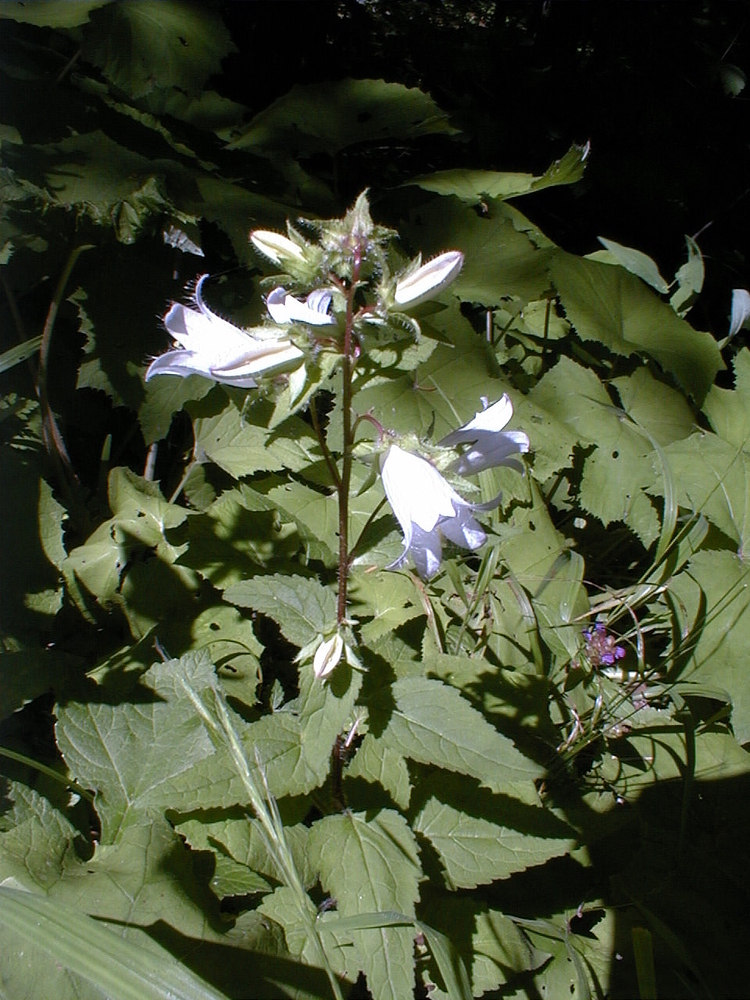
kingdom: Plantae
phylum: Tracheophyta
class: Magnoliopsida
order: Asterales
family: Campanulaceae
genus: Campanula
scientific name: Campanula trachelium
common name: Nettle-leaved bellflower
